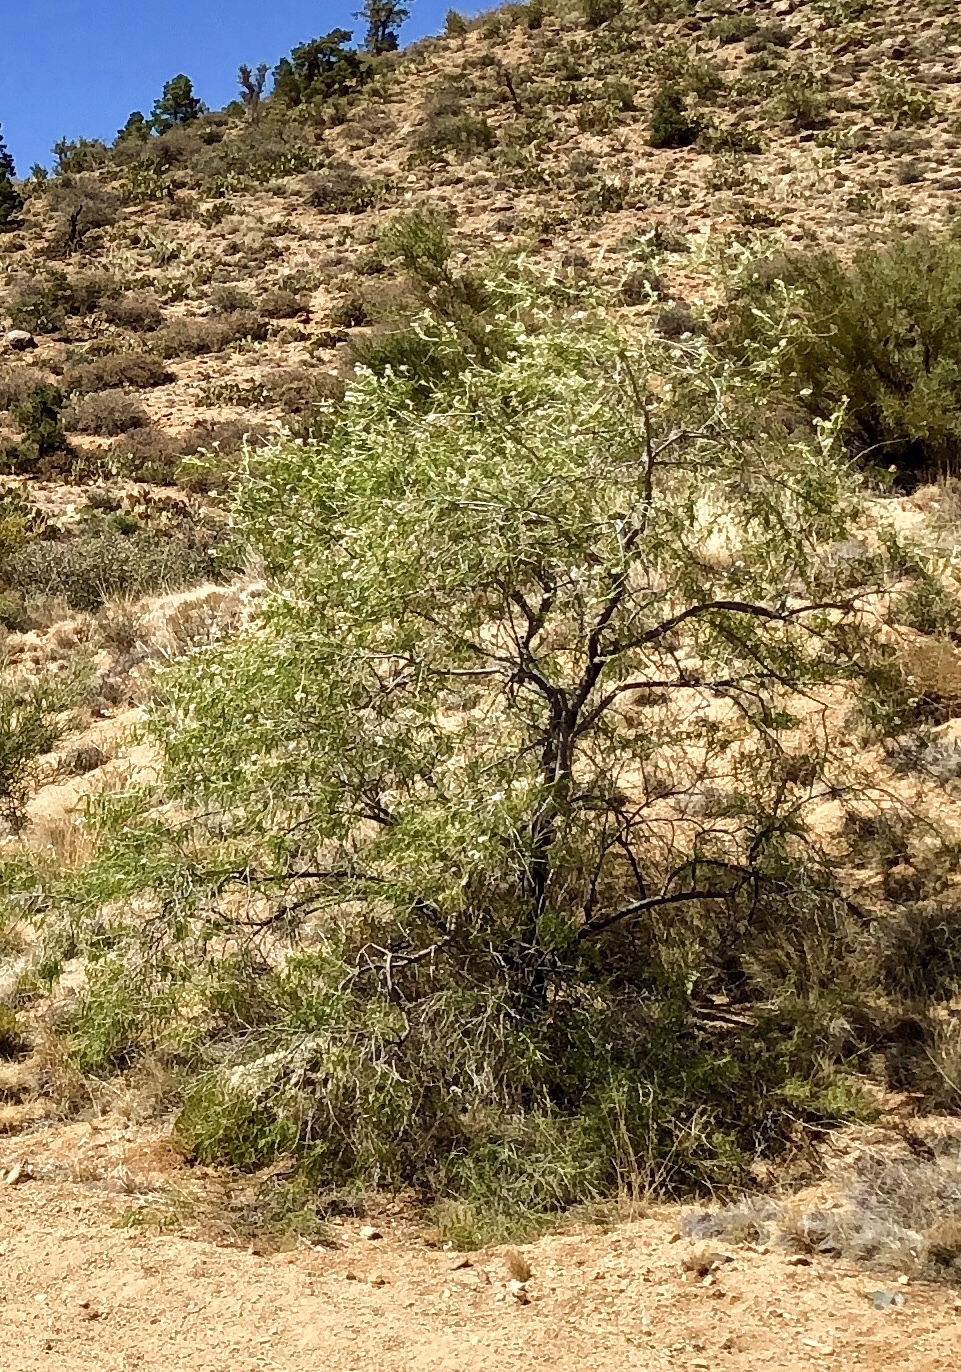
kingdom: Plantae
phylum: Tracheophyta
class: Magnoliopsida
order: Lamiales
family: Bignoniaceae
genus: Chilopsis
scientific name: Chilopsis linearis
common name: Desert-willow
